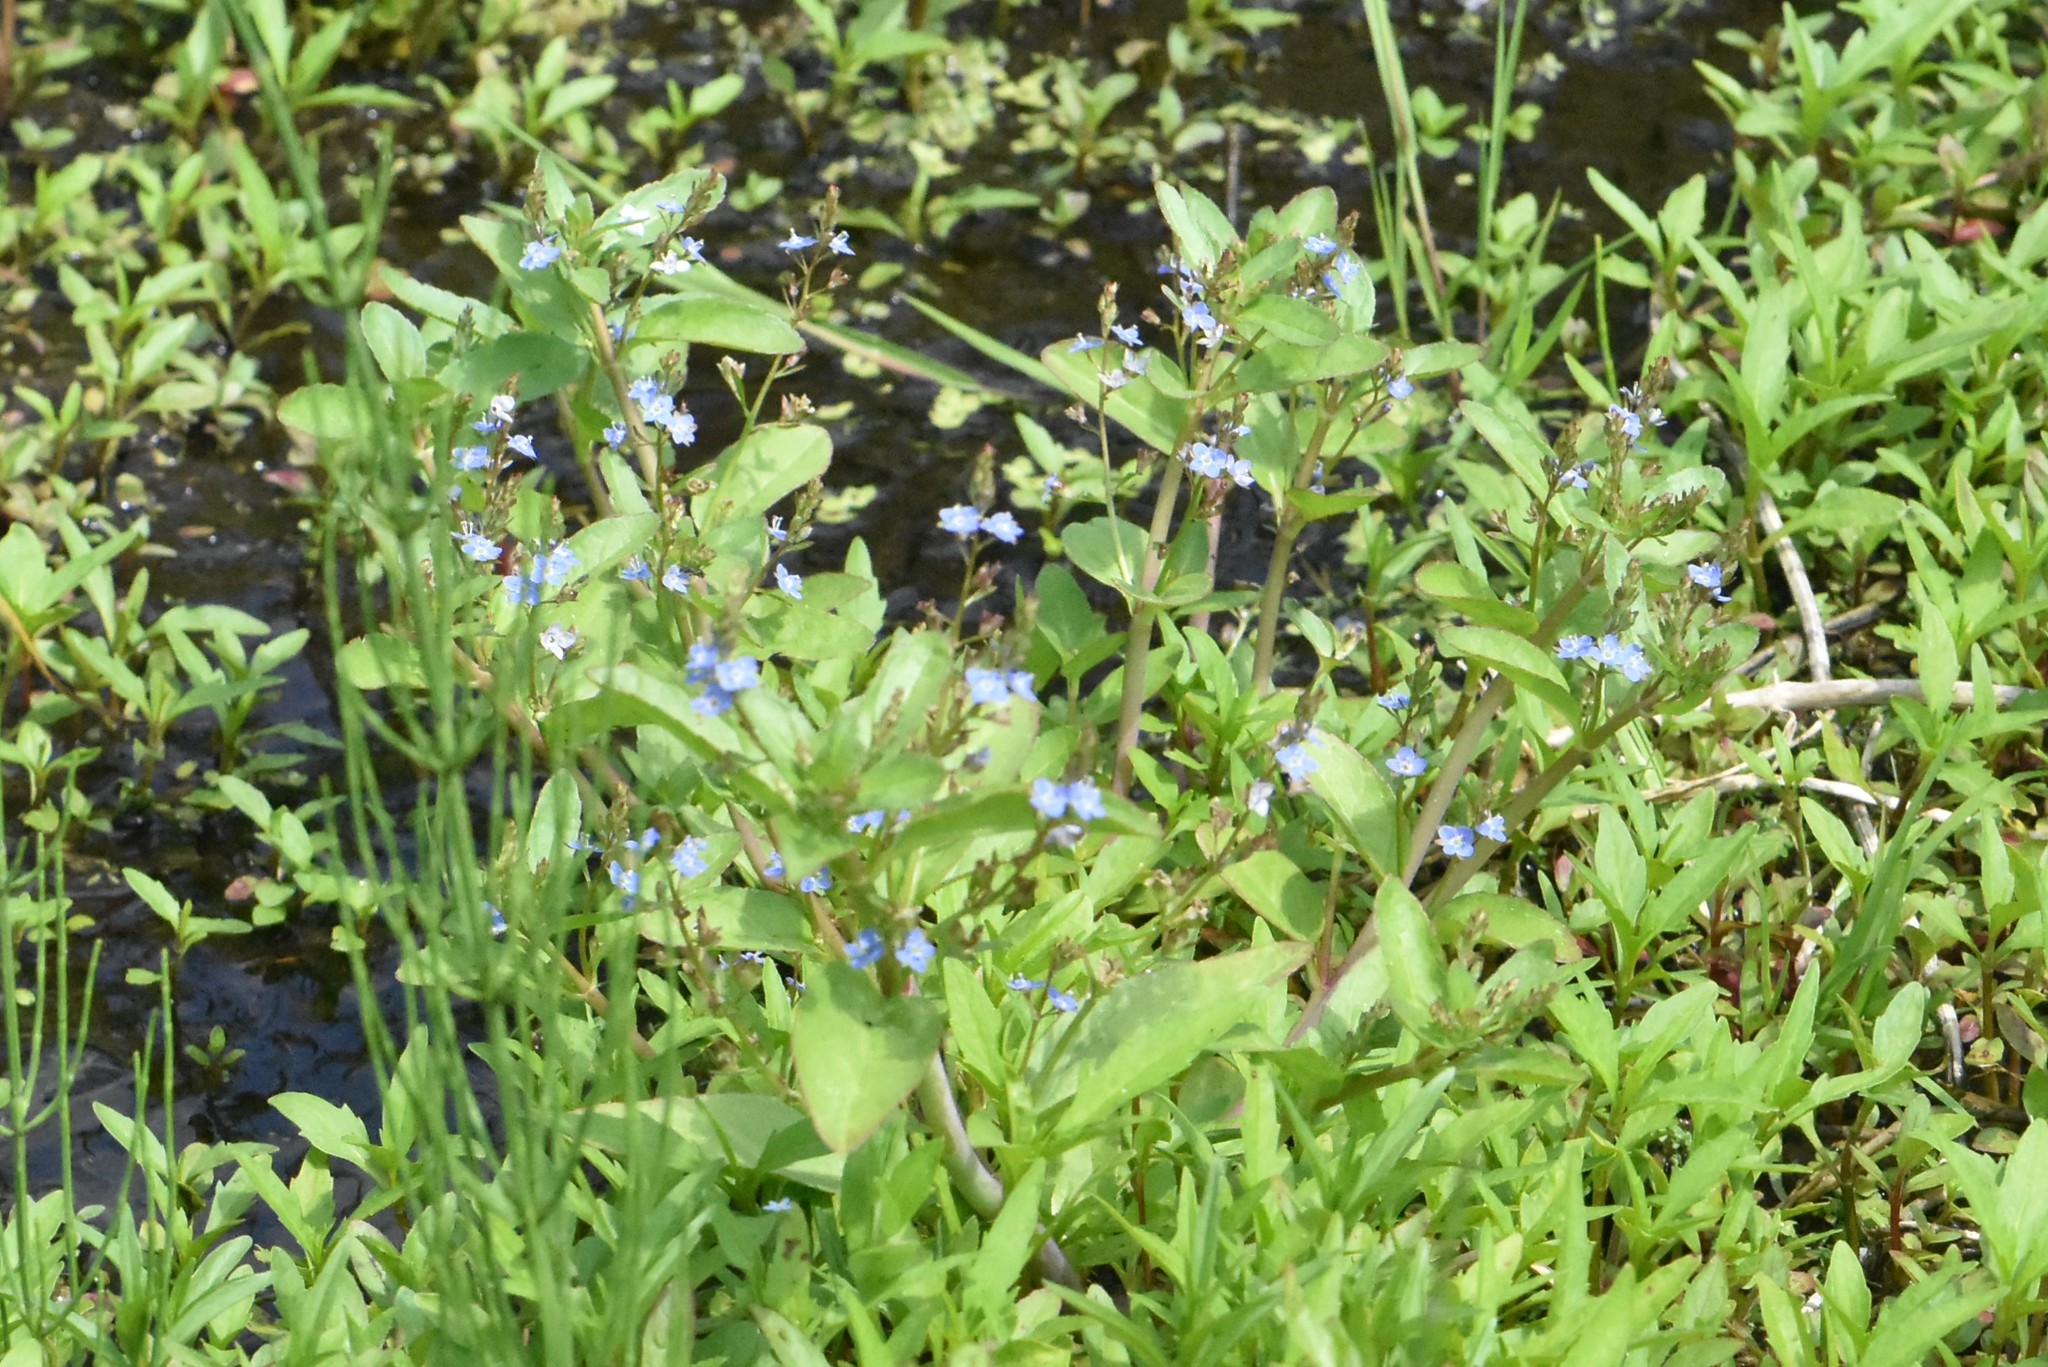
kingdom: Plantae
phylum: Tracheophyta
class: Magnoliopsida
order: Lamiales
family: Plantaginaceae
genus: Veronica
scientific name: Veronica beccabunga
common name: Brooklime
